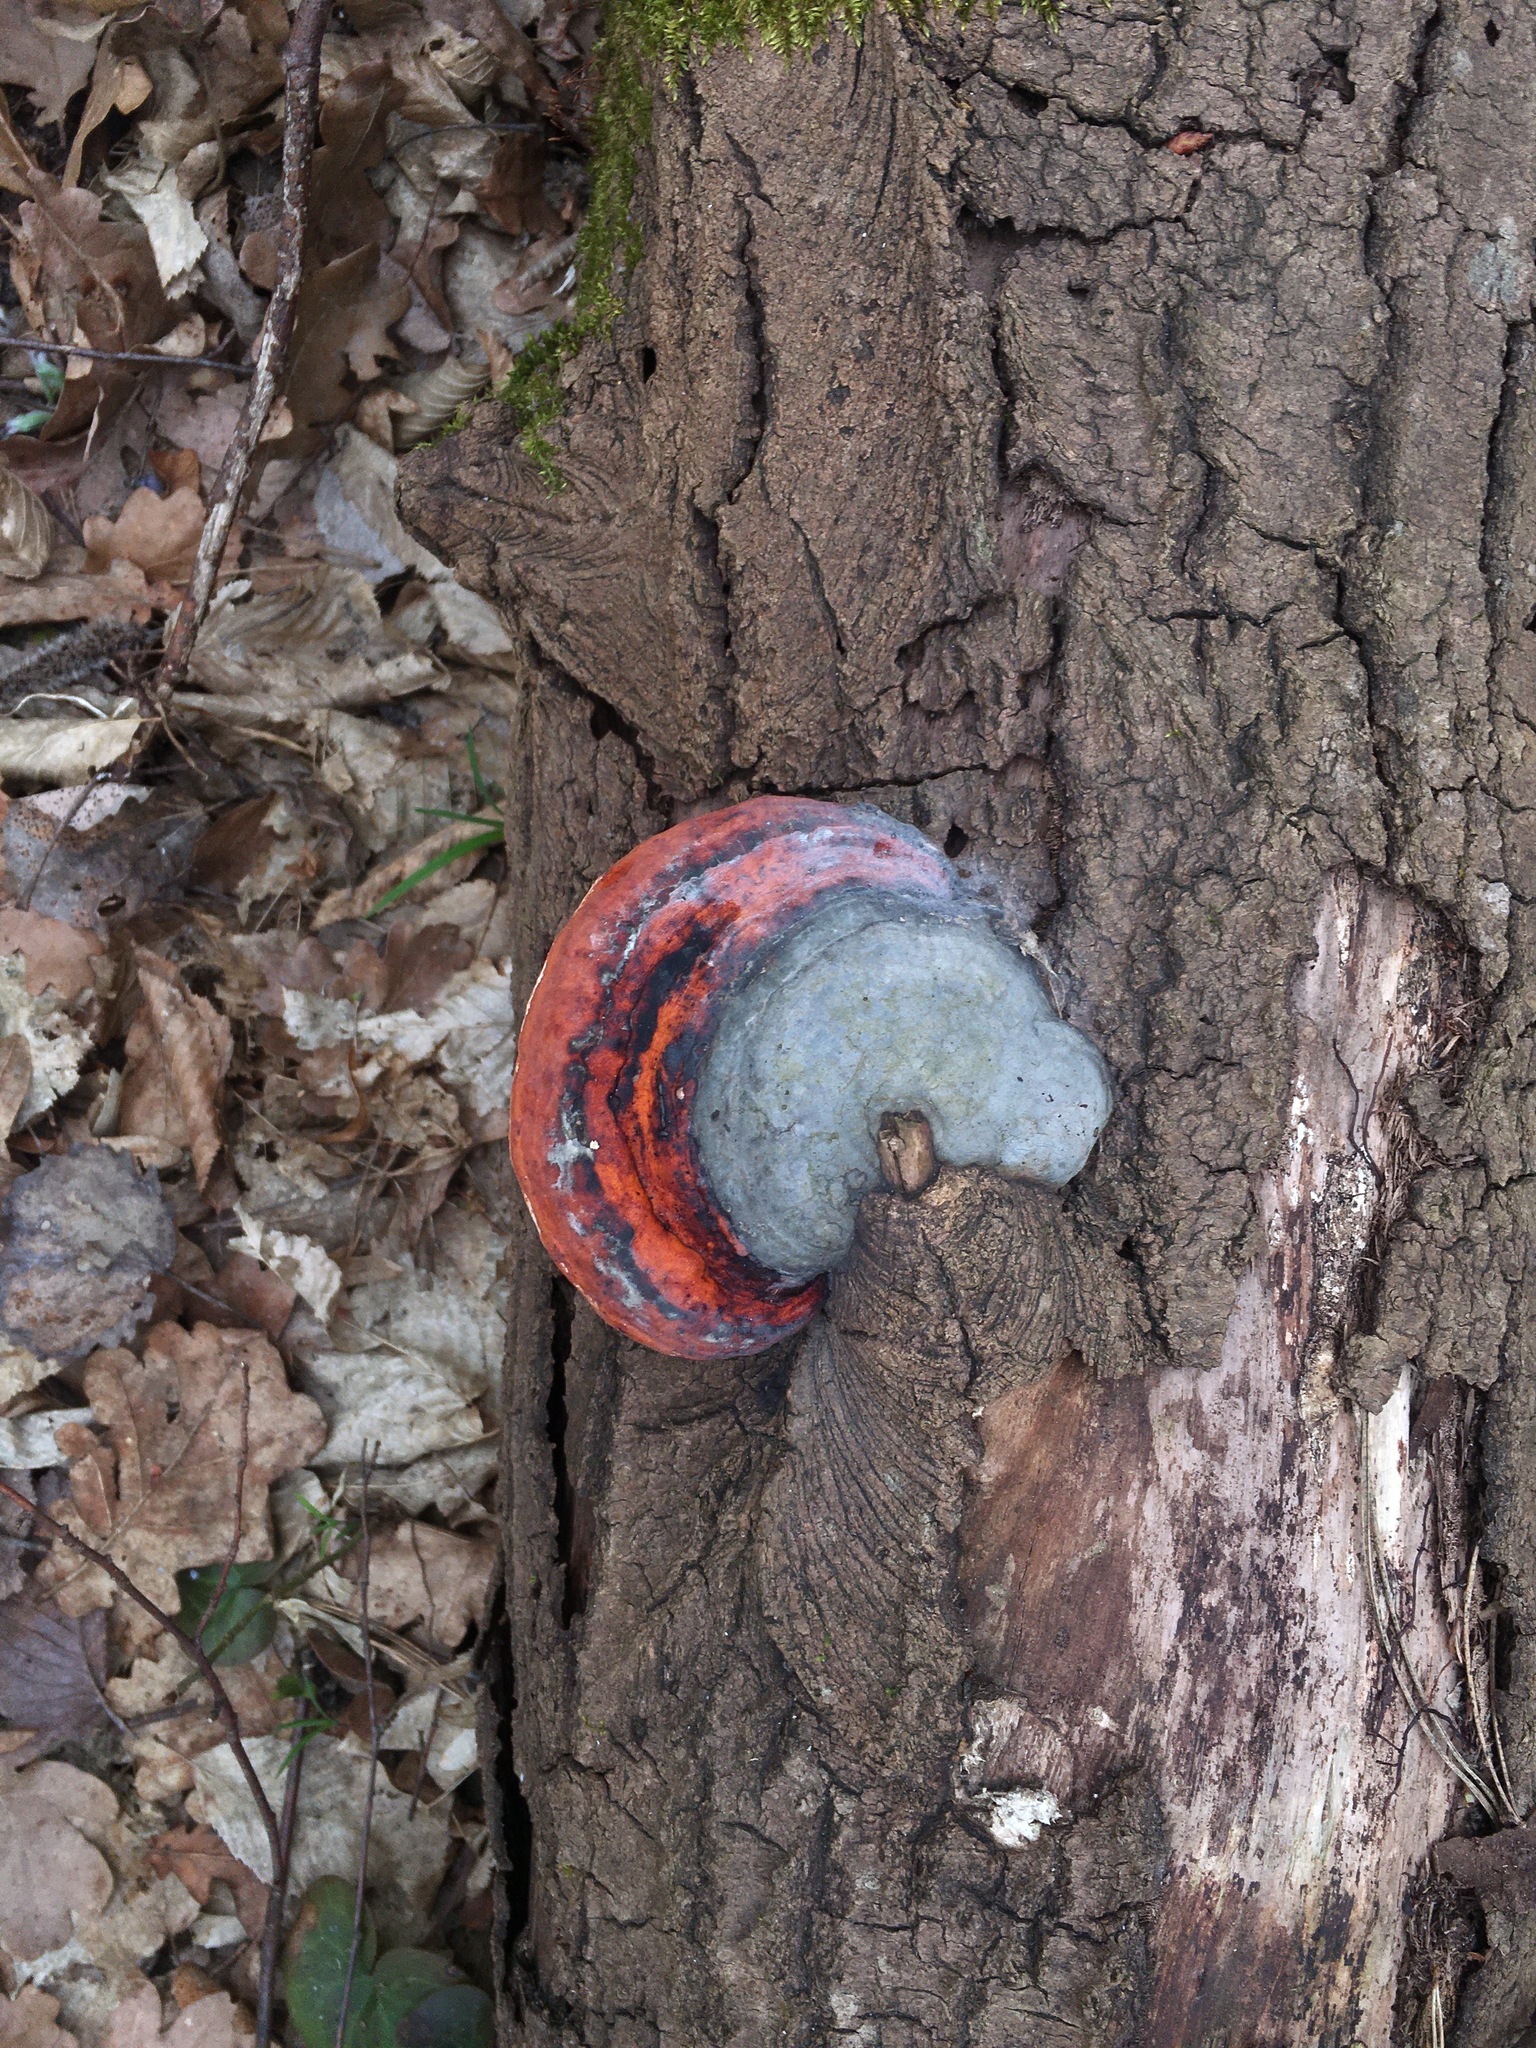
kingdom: Fungi
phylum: Basidiomycota
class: Agaricomycetes
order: Polyporales
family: Fomitopsidaceae
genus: Fomitopsis
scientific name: Fomitopsis pinicola
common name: Red-belted bracket
